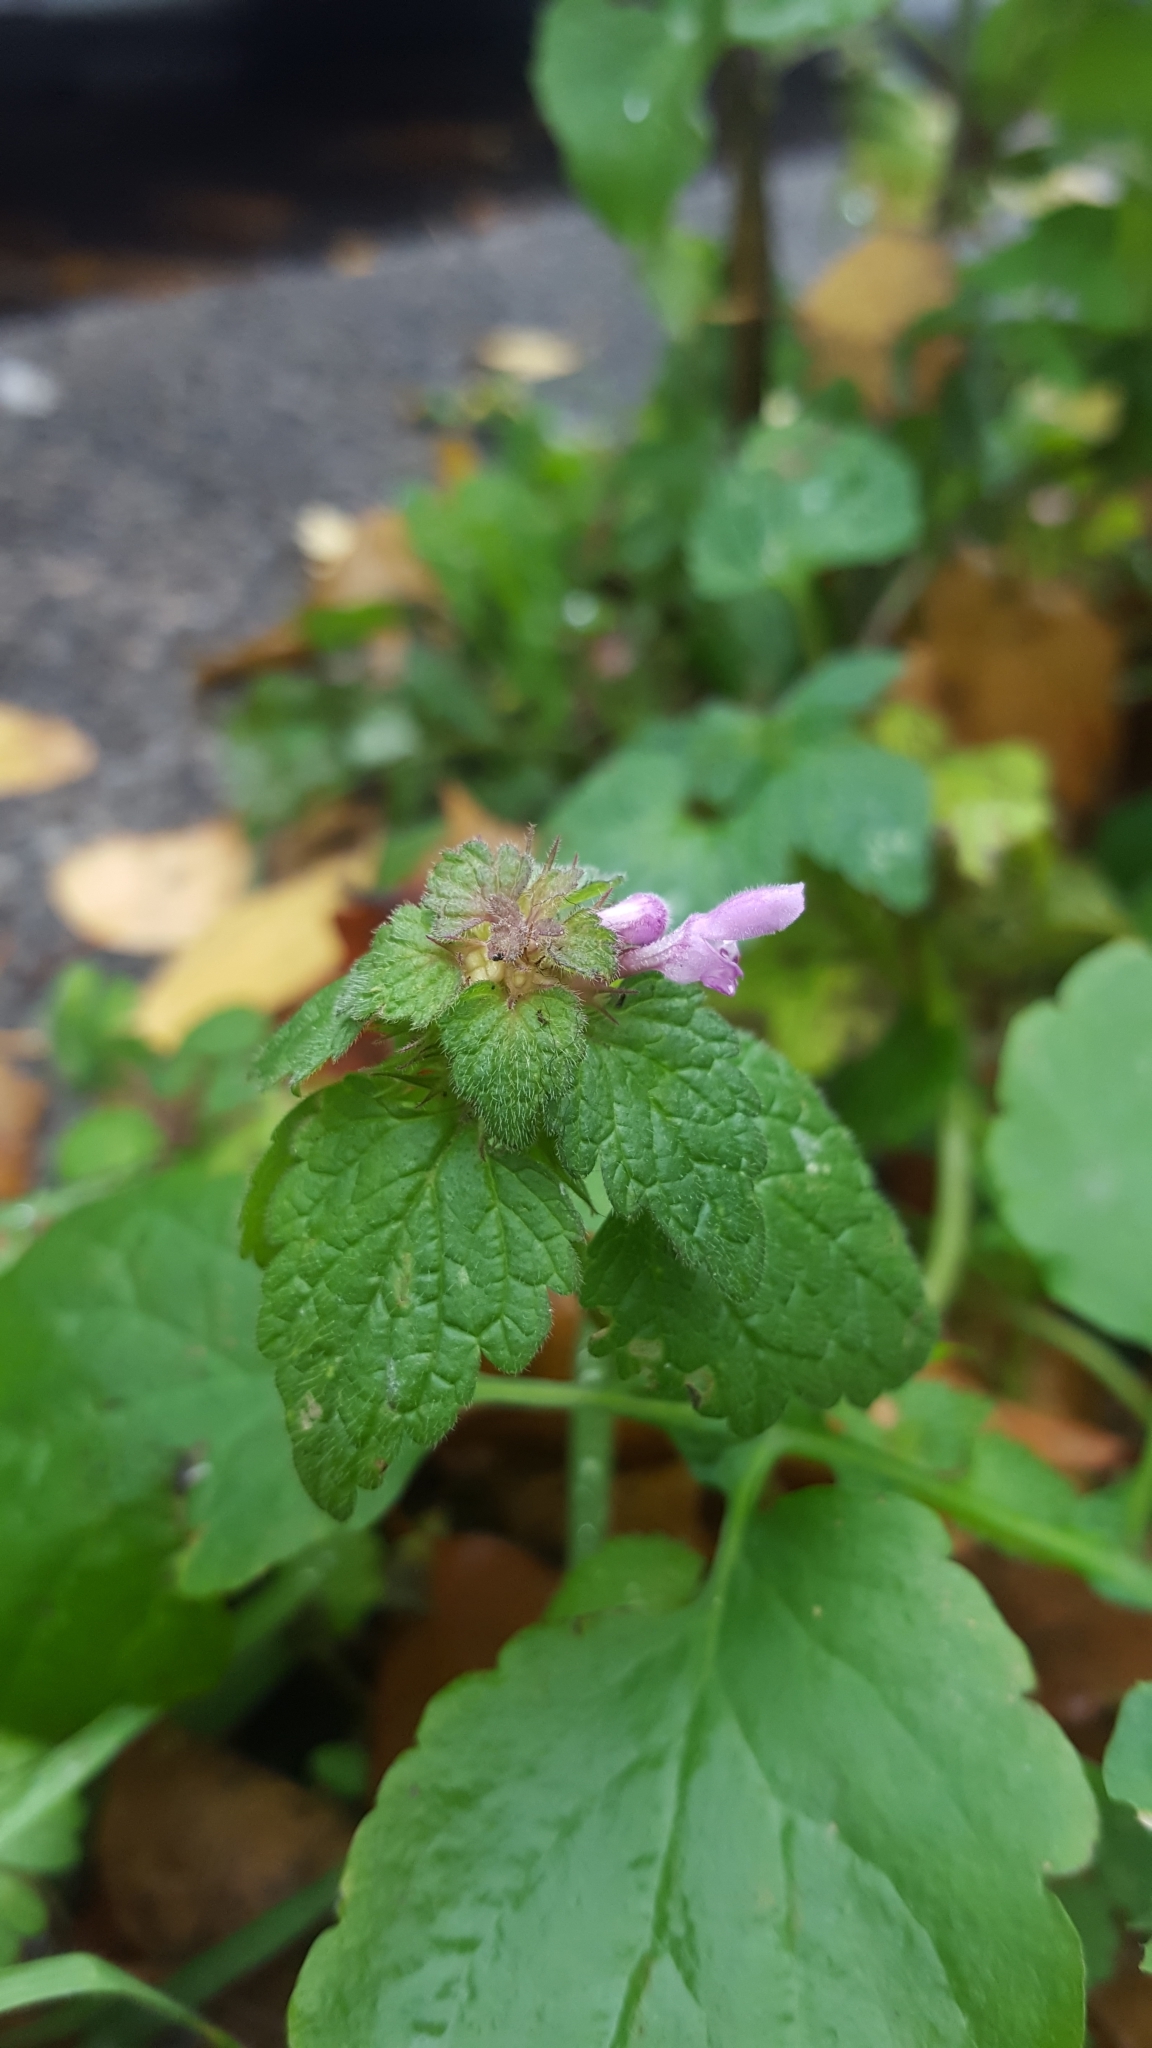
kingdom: Plantae
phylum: Tracheophyta
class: Magnoliopsida
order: Lamiales
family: Lamiaceae
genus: Lamium
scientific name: Lamium purpureum
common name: Red dead-nettle
